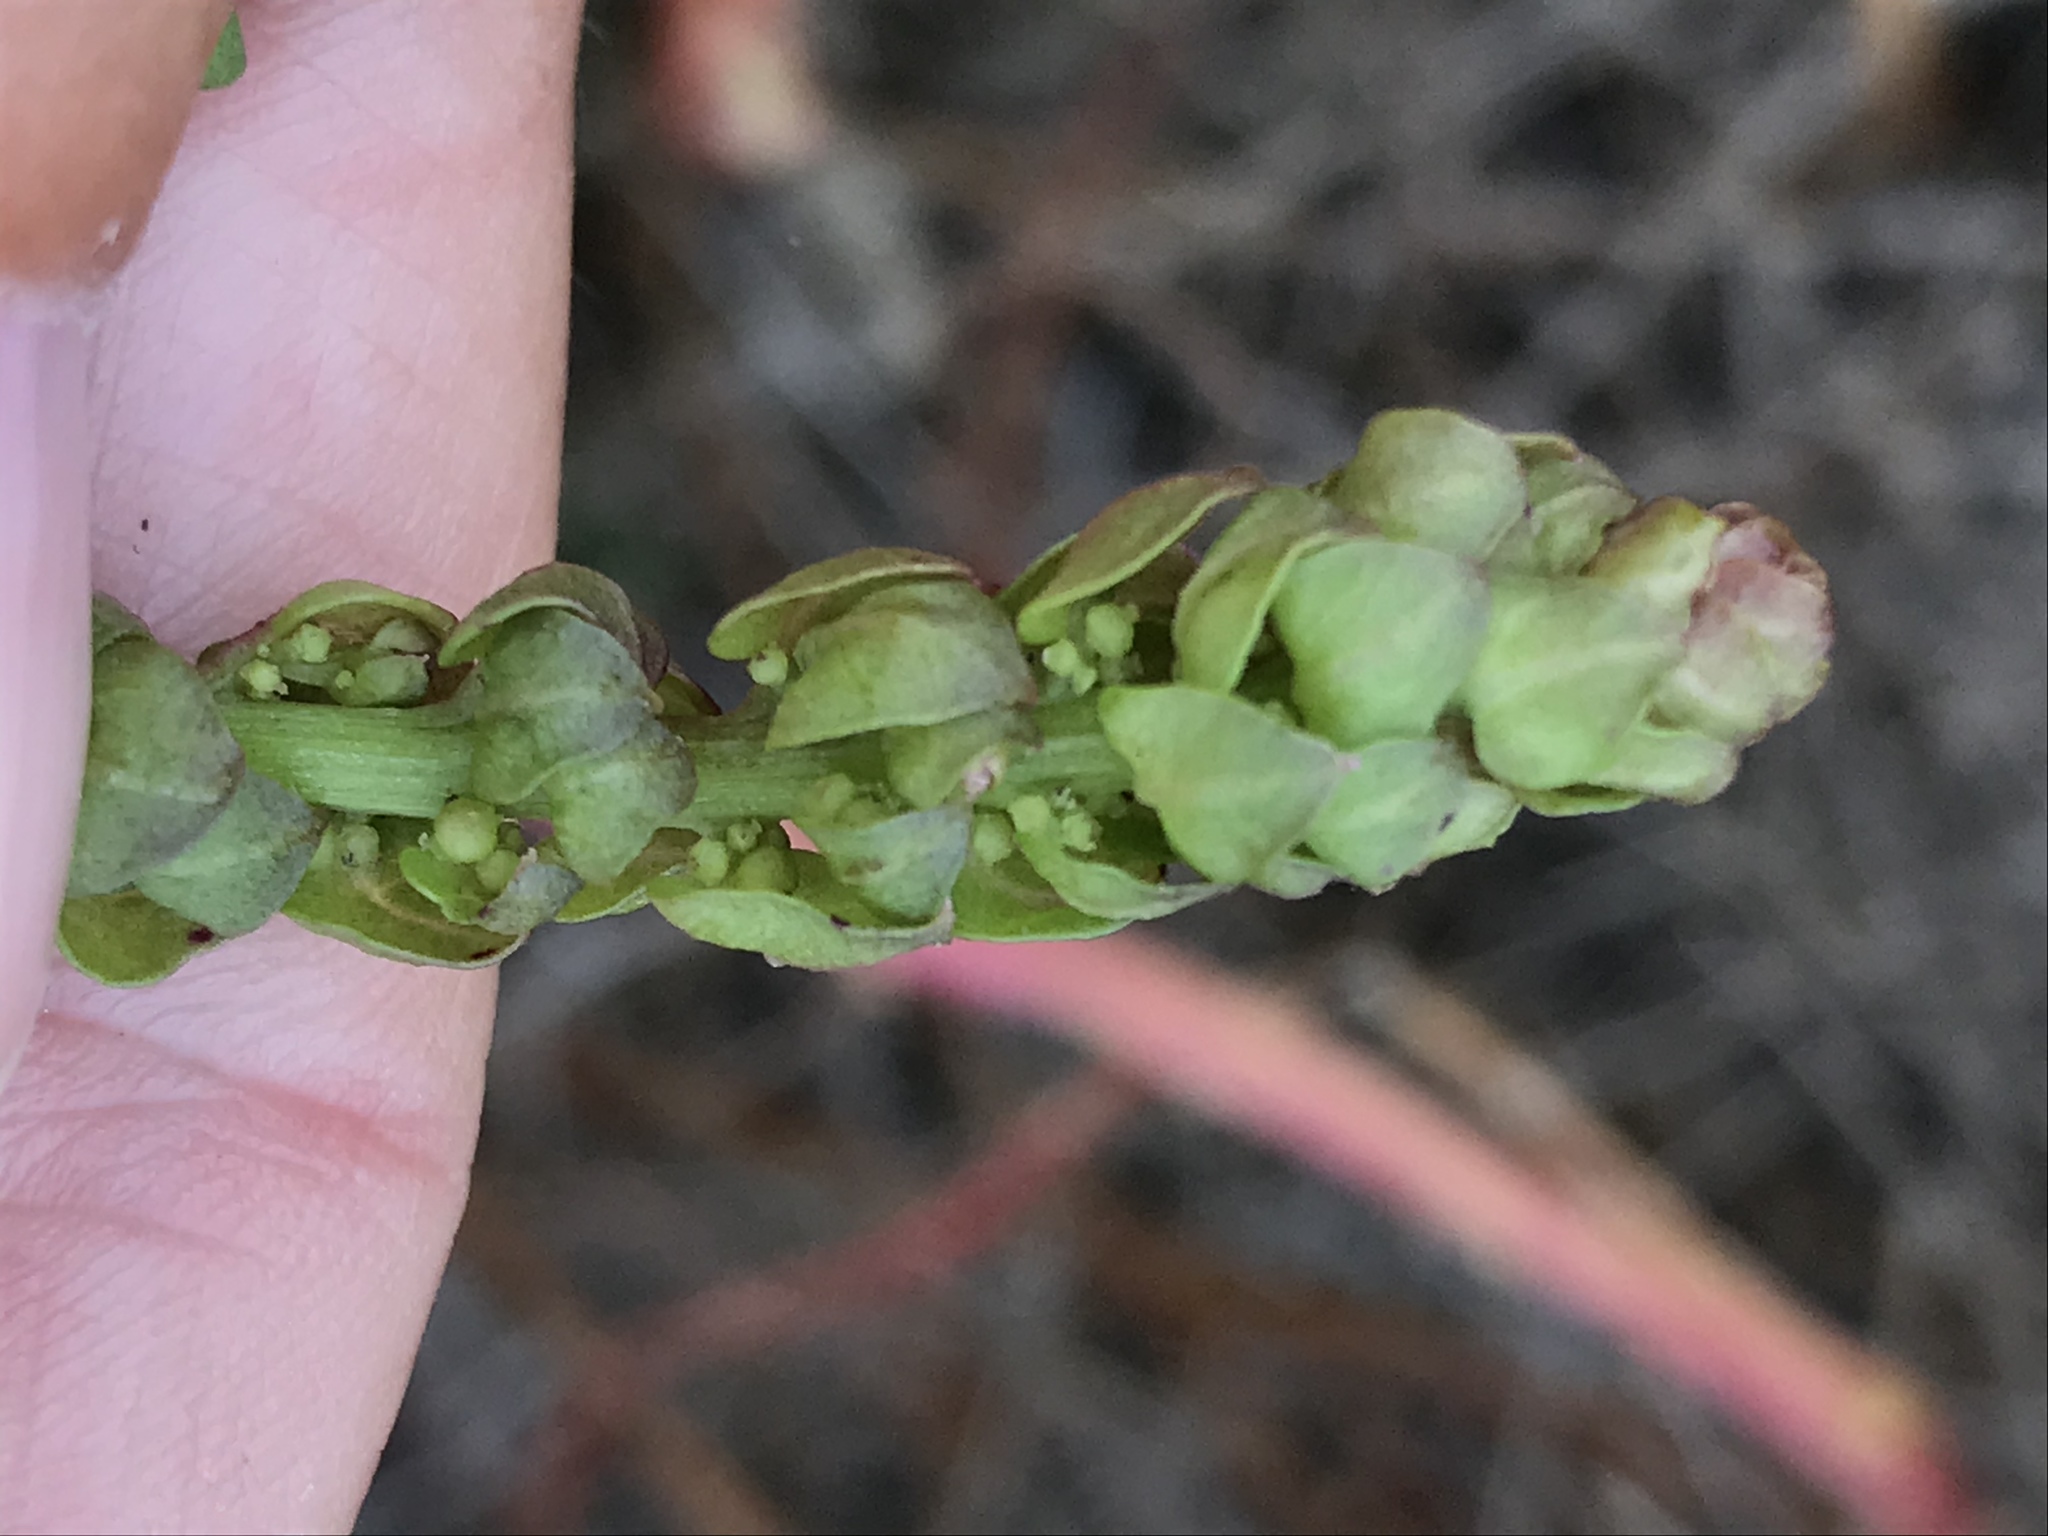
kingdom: Plantae
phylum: Tracheophyta
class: Magnoliopsida
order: Caryophyllales
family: Amaranthaceae
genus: Aphanisma
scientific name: Aphanisma blitoides
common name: Aphanisma
